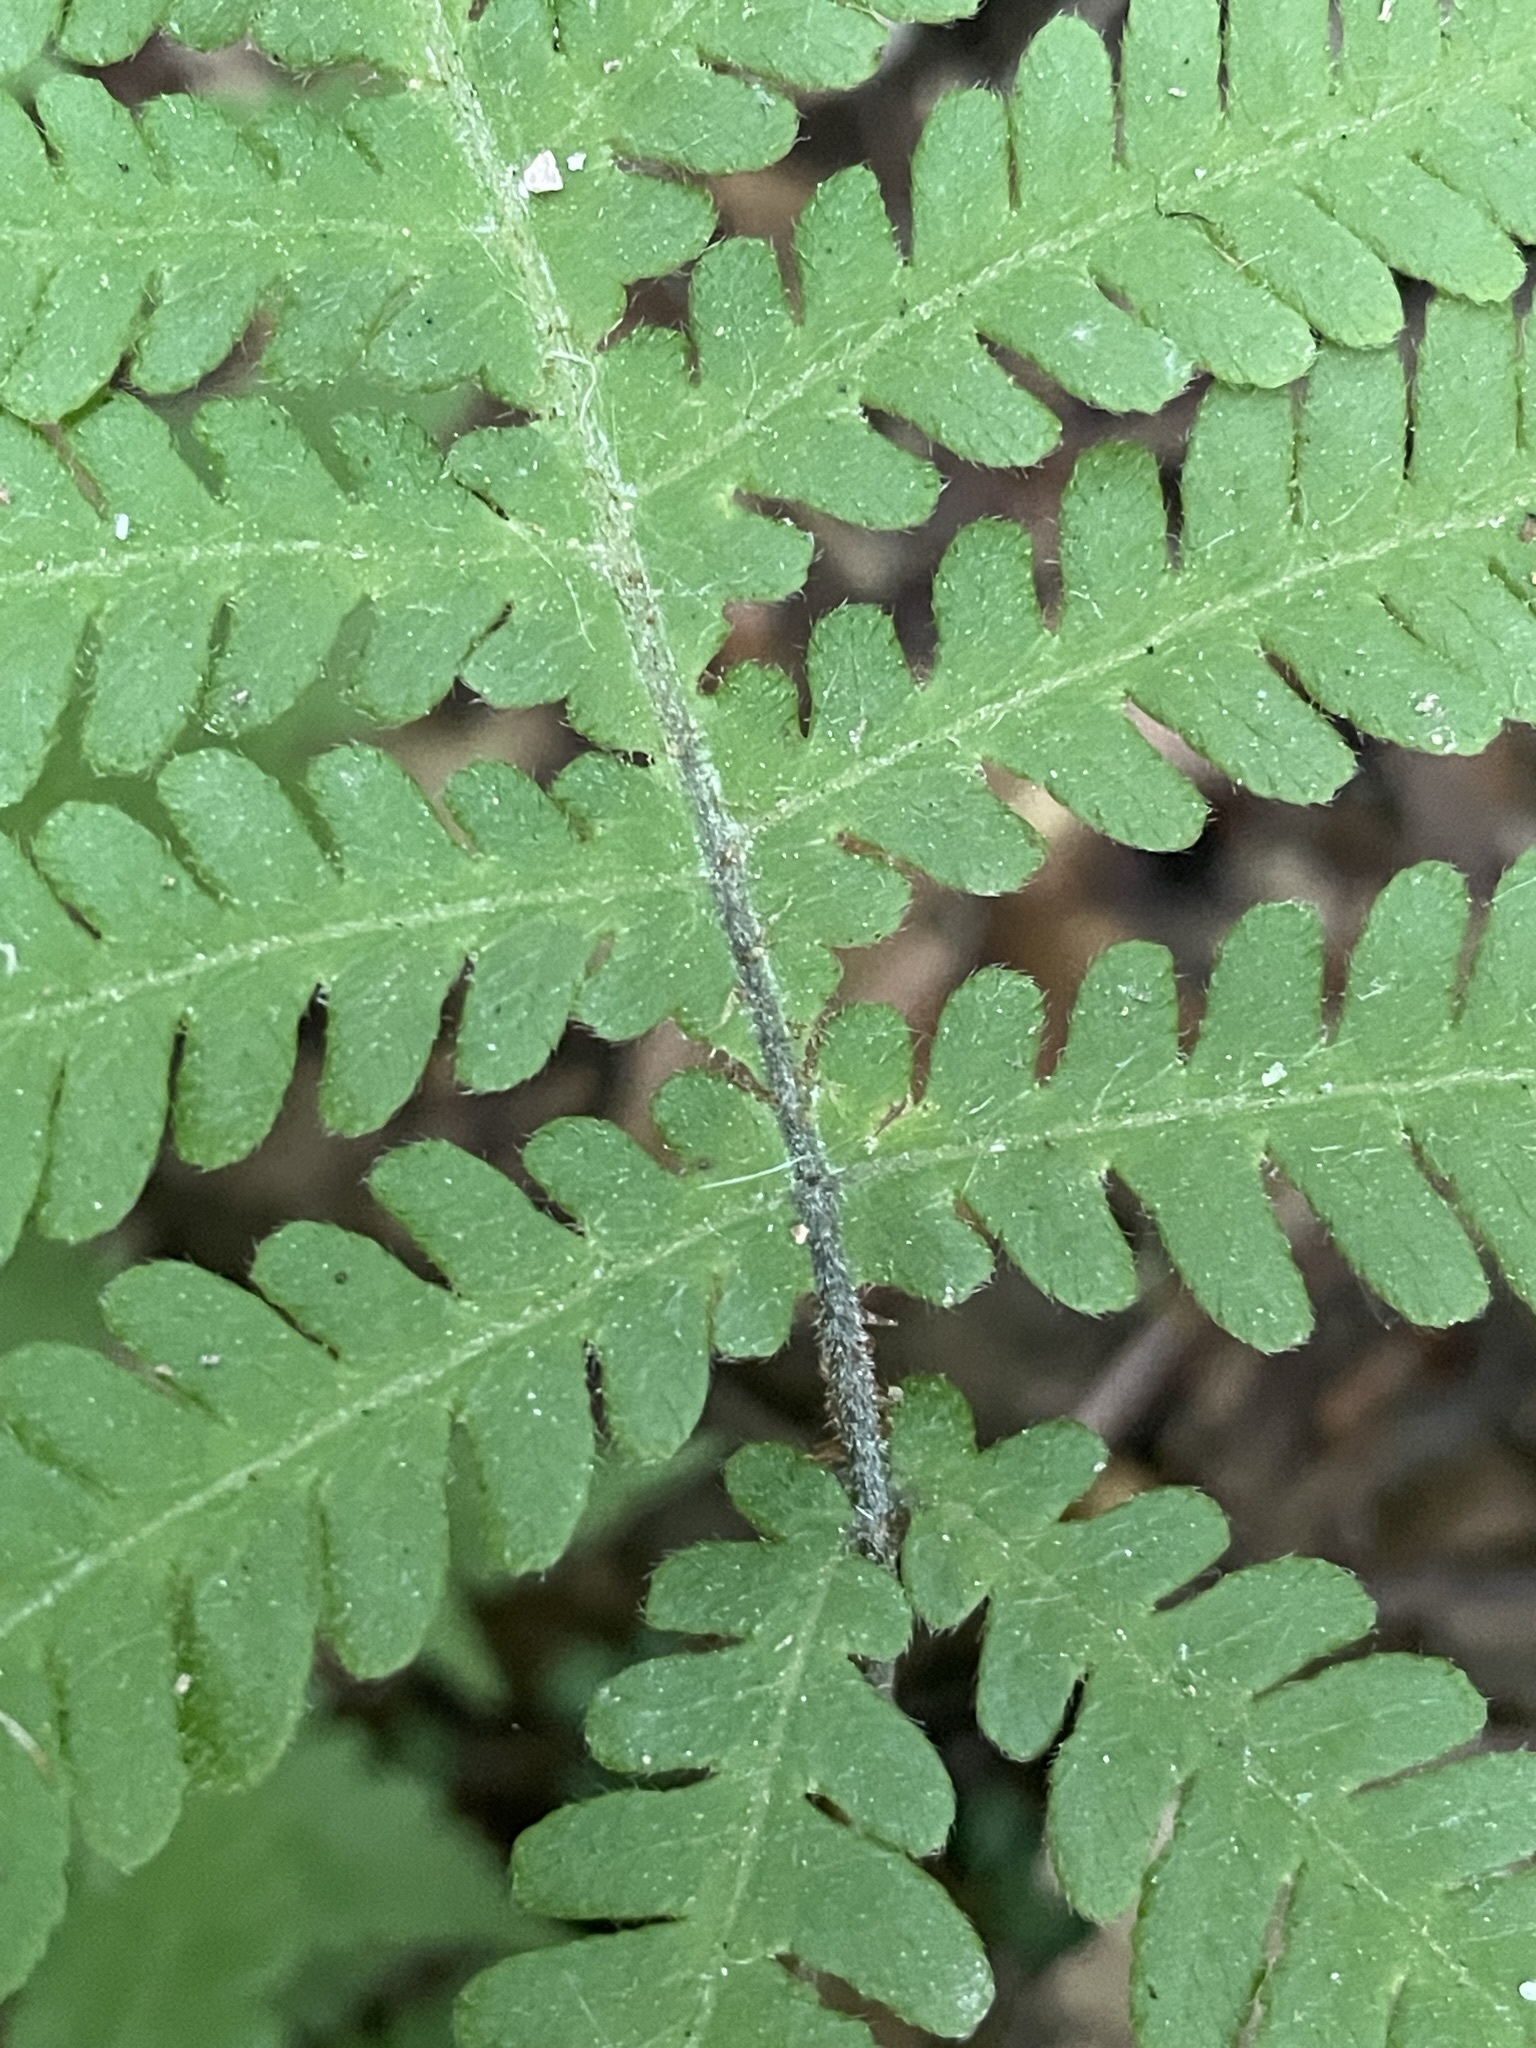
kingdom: Plantae
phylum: Tracheophyta
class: Polypodiopsida
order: Polypodiales
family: Thelypteridaceae
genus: Phegopteris
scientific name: Phegopteris connectilis
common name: Beech fern
